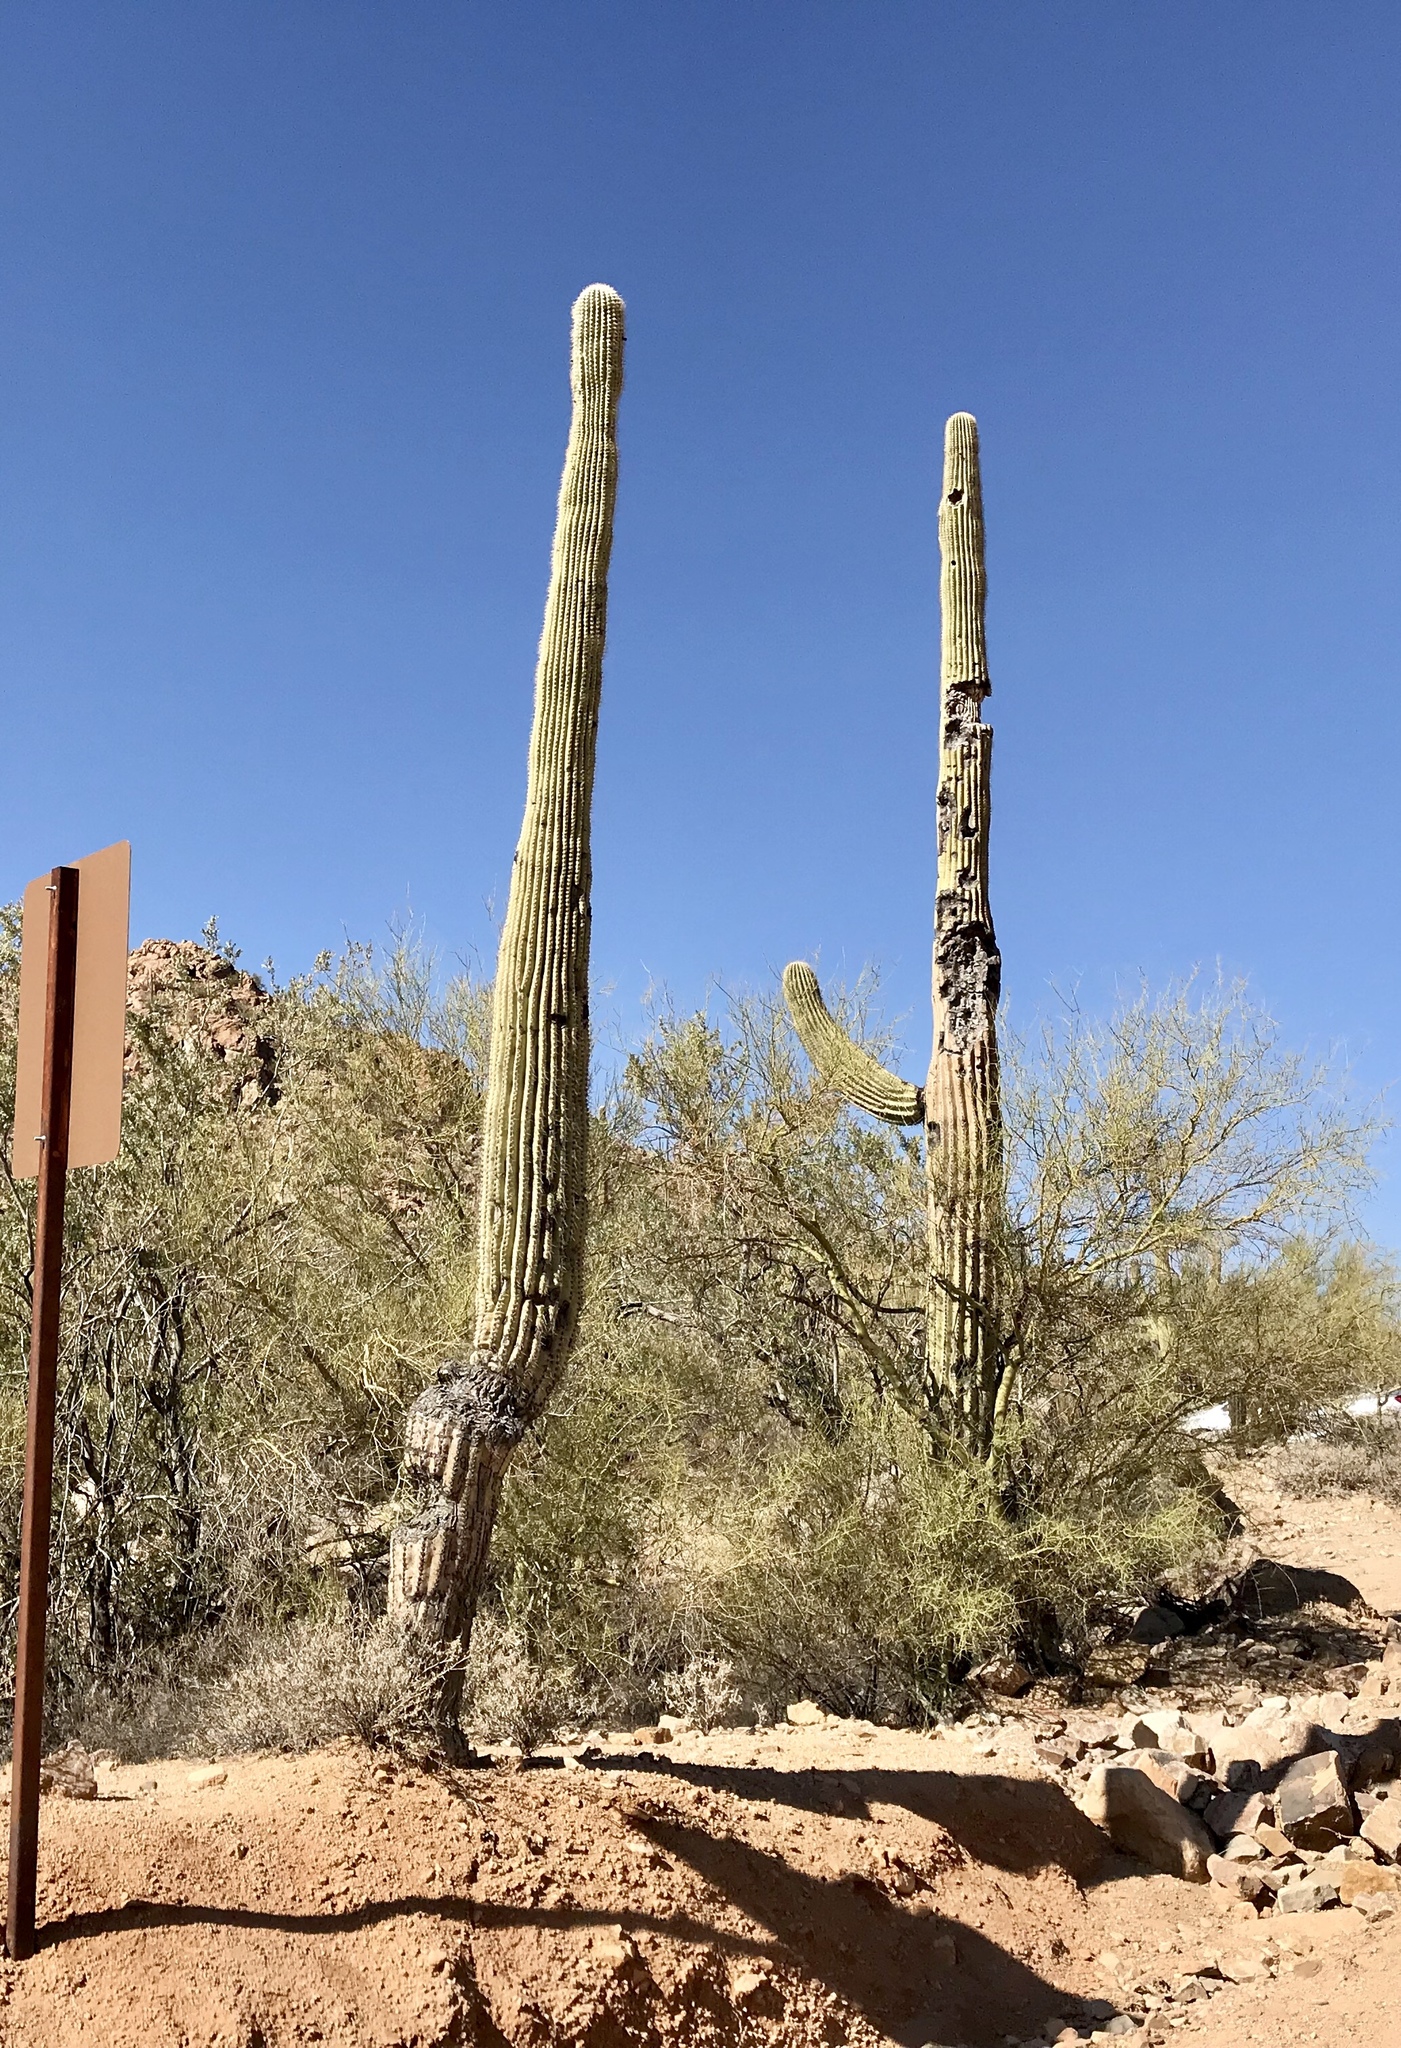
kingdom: Plantae
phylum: Tracheophyta
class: Magnoliopsida
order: Caryophyllales
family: Cactaceae
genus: Carnegiea
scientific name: Carnegiea gigantea
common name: Saguaro
